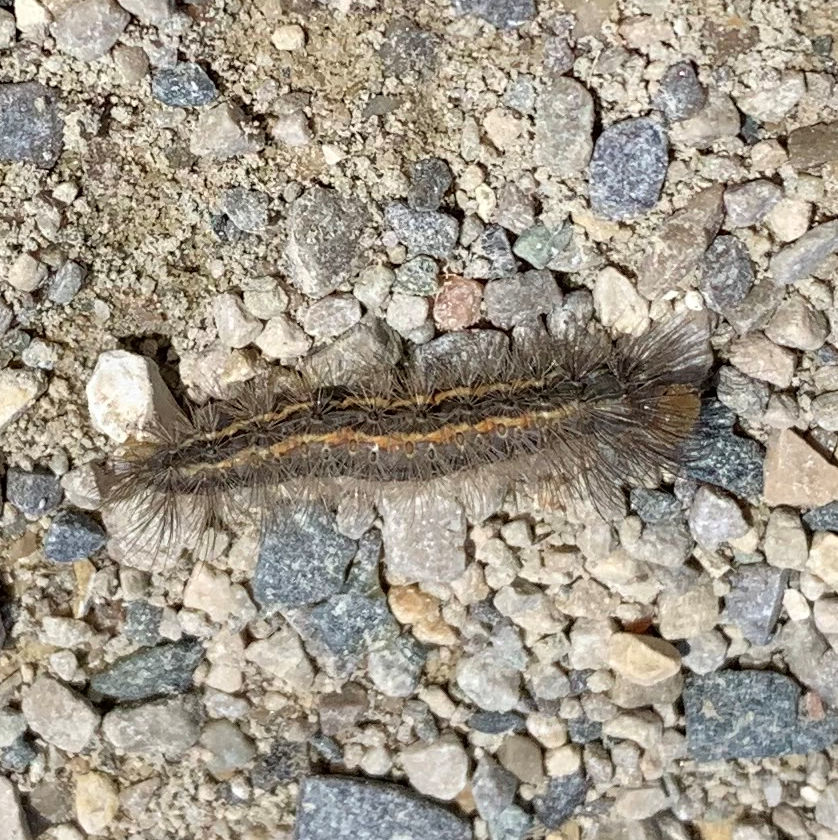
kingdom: Animalia
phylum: Arthropoda
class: Insecta
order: Lepidoptera
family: Erebidae
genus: Cisseps
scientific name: Cisseps fulvicollis
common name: Yellow-collared scape moth
